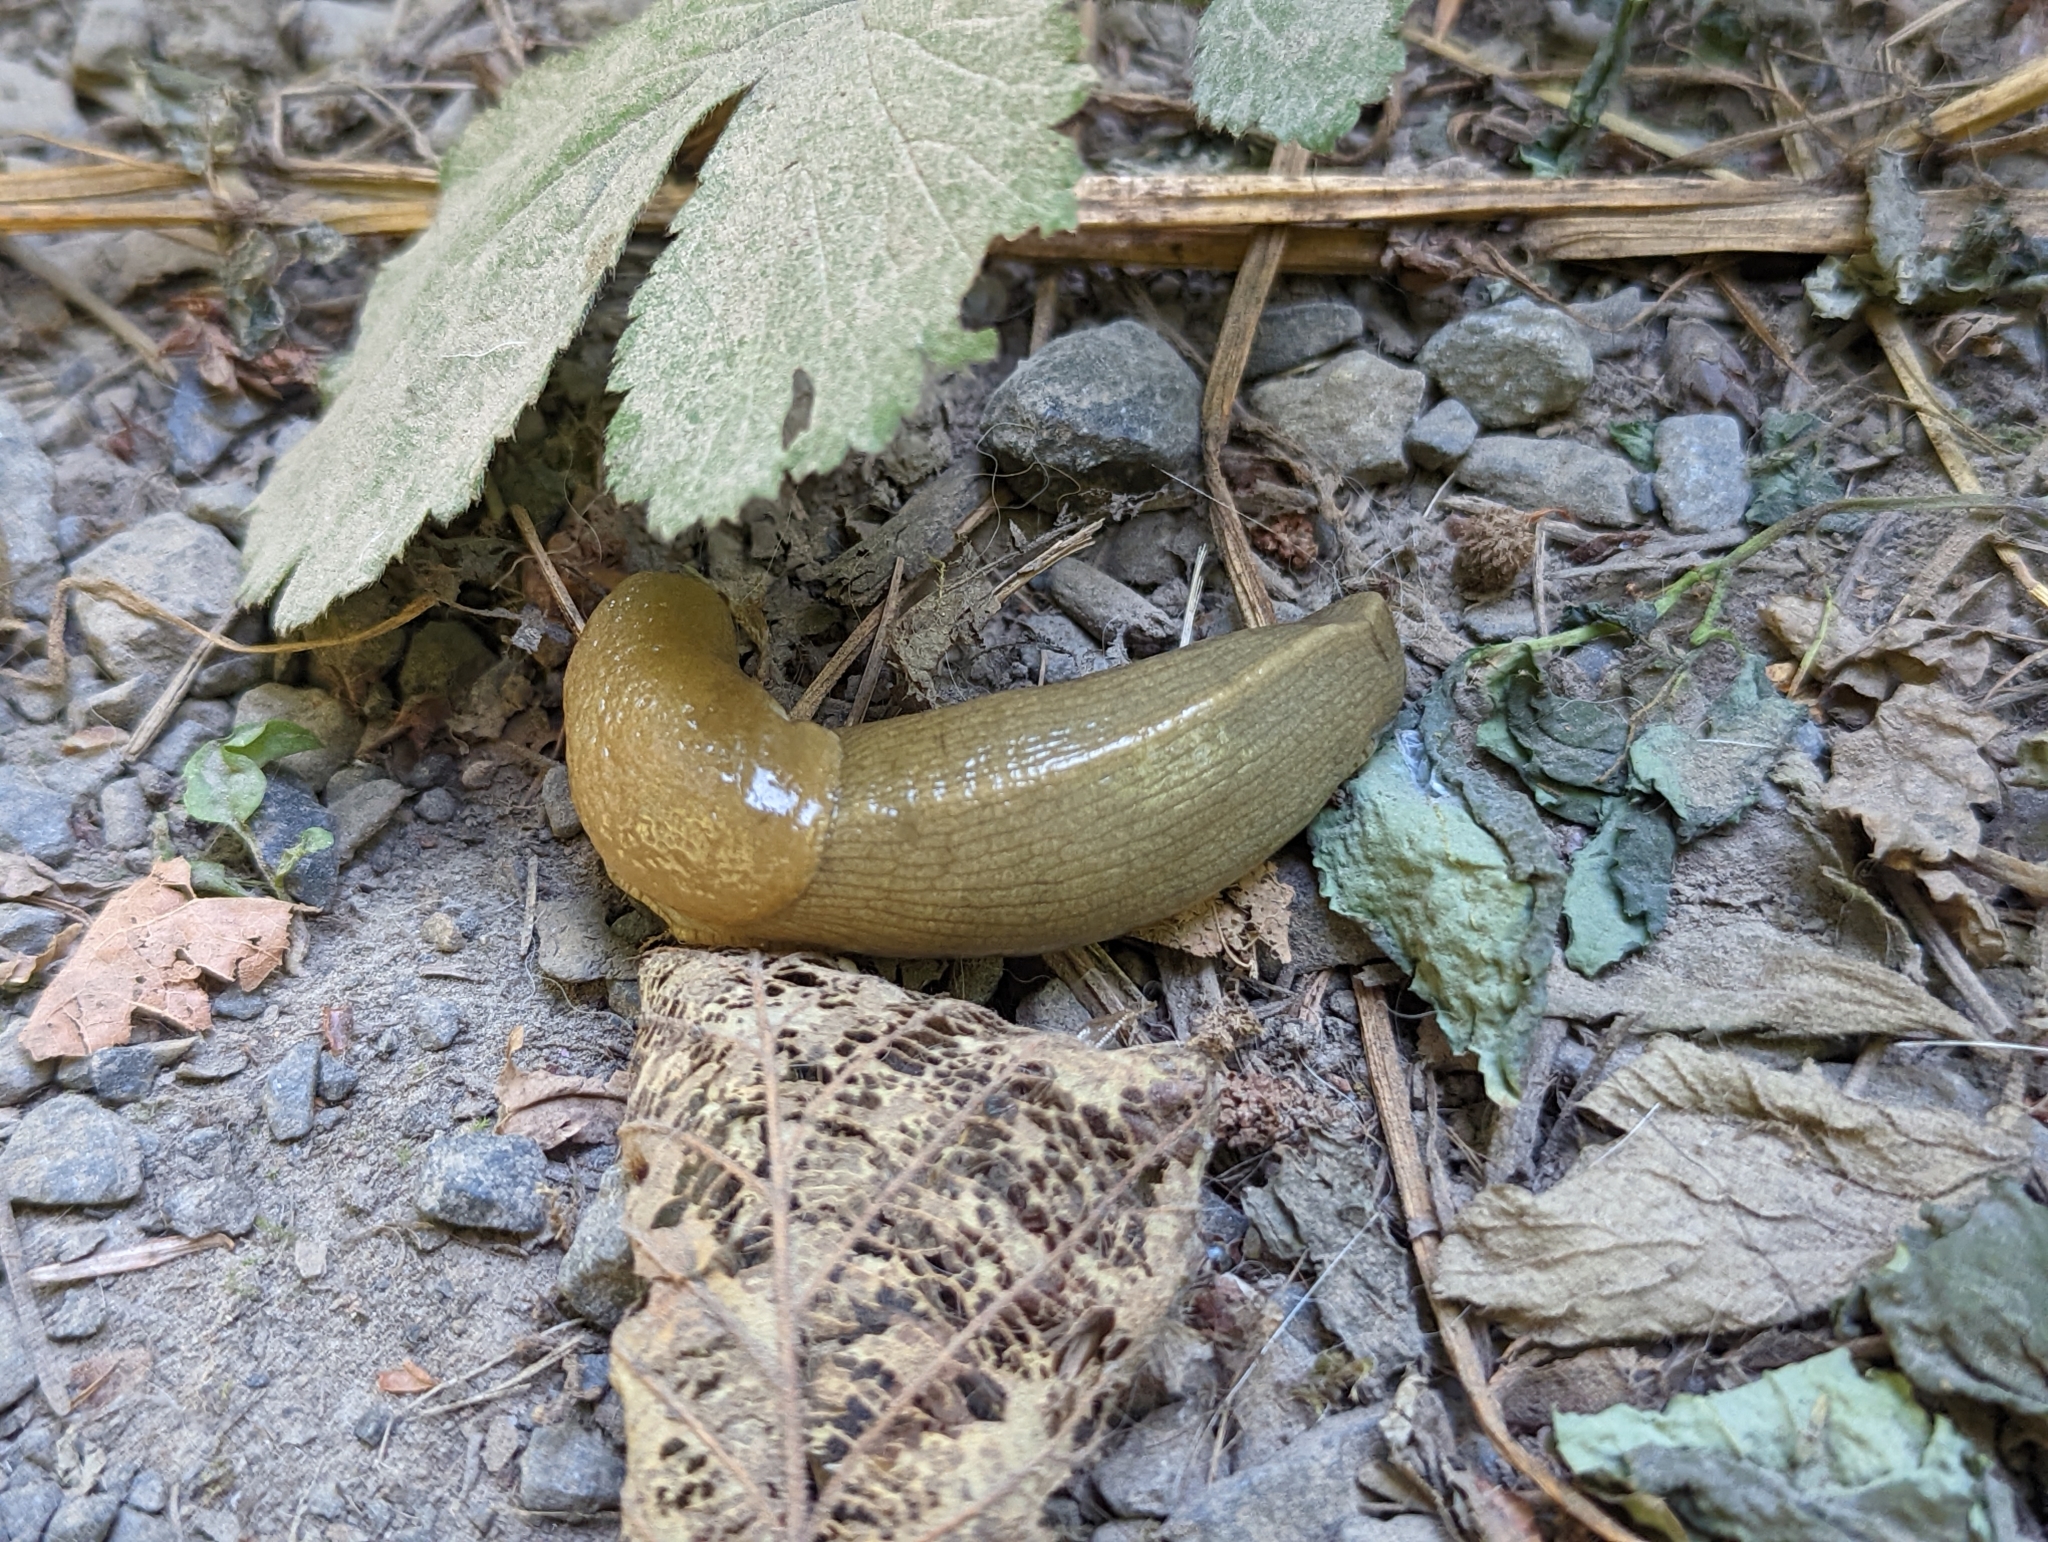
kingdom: Animalia
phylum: Mollusca
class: Gastropoda
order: Stylommatophora
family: Ariolimacidae
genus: Ariolimax
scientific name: Ariolimax columbianus
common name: Pacific banana slug
